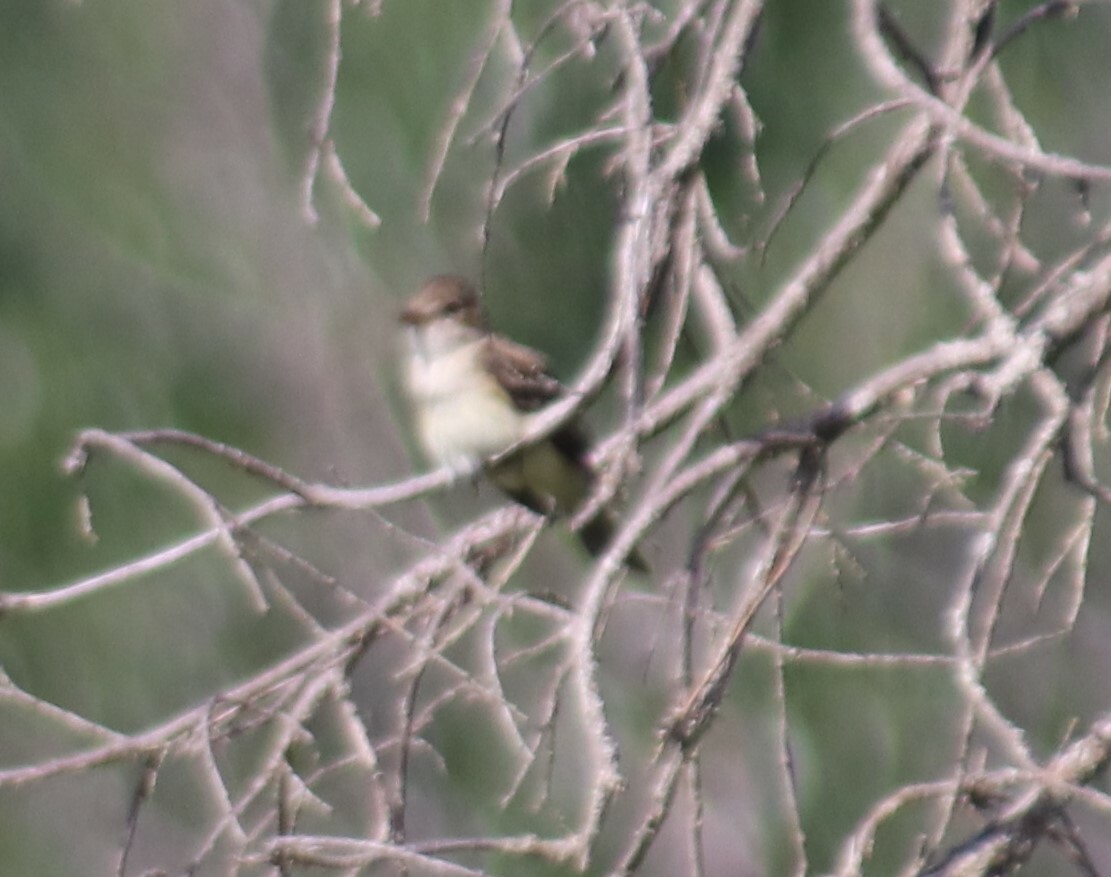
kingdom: Animalia
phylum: Chordata
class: Aves
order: Passeriformes
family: Tyrannidae
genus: Empidonax
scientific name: Empidonax alnorum
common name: Alder flycatcher
